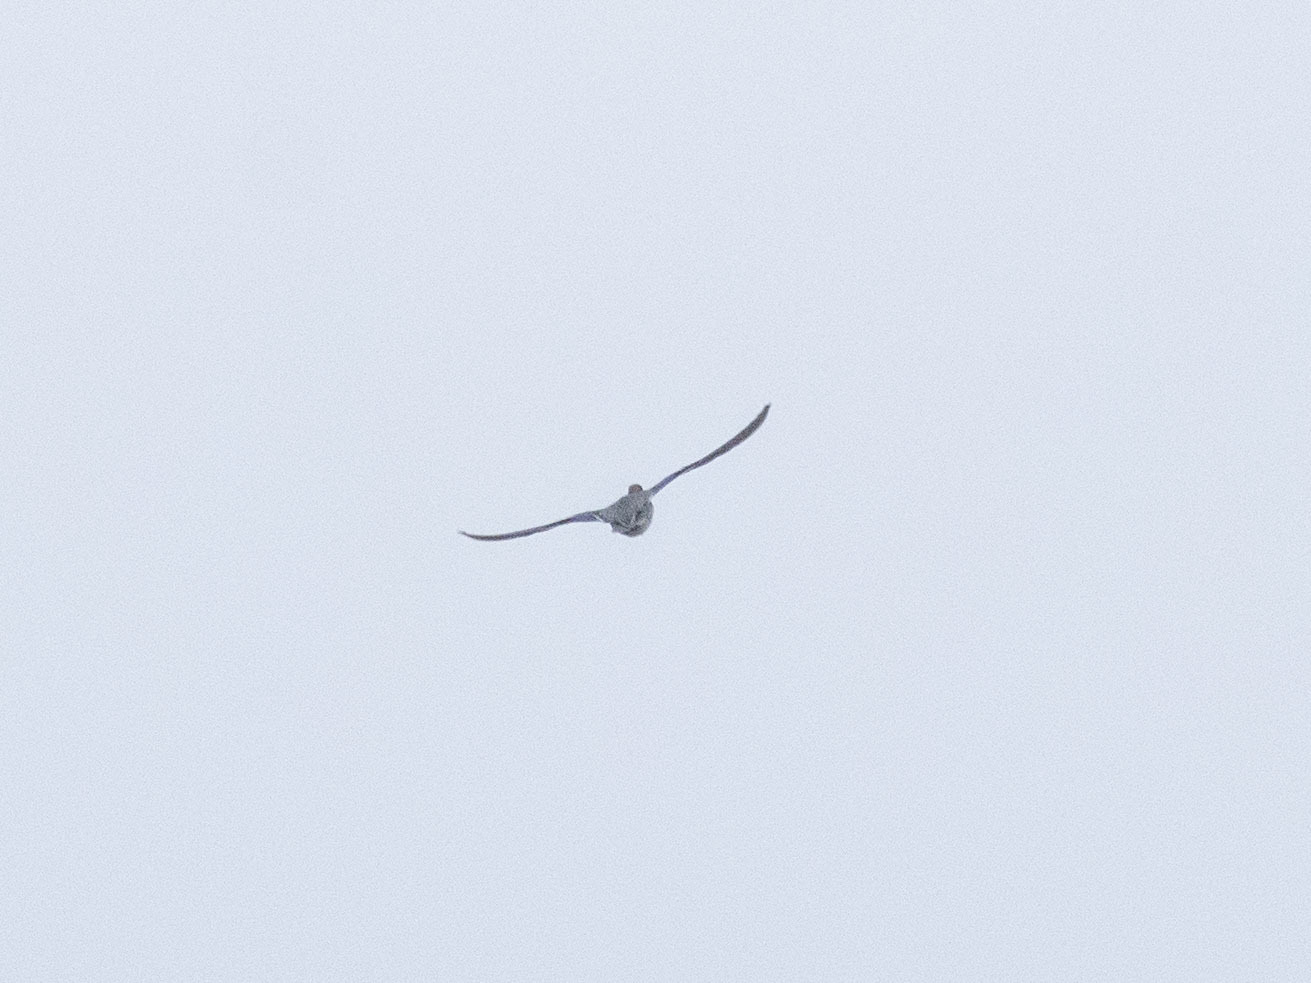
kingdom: Animalia
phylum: Chordata
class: Aves
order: Anseriformes
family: Anatidae
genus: Anas
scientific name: Anas crecca
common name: Eurasian teal
